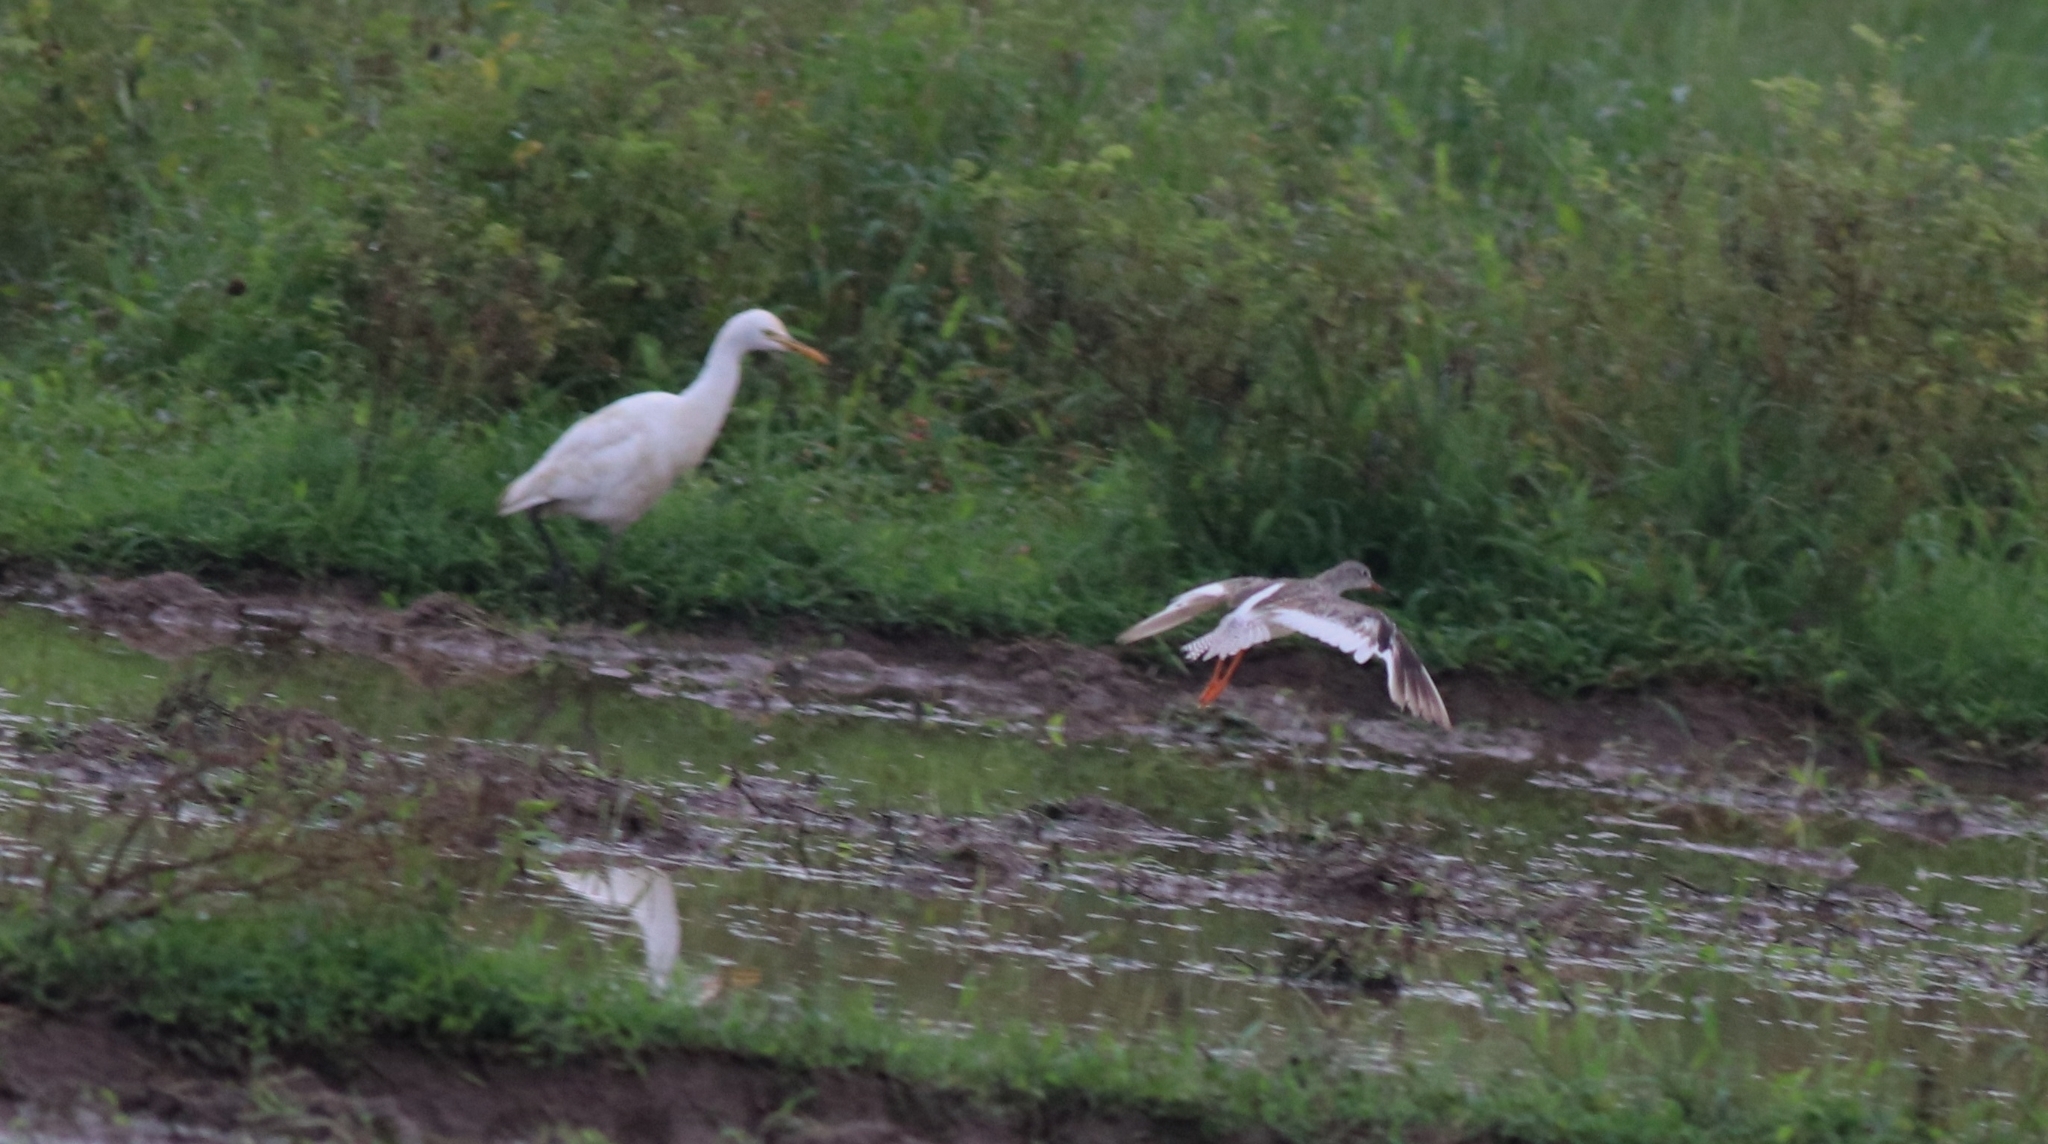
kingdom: Animalia
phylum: Chordata
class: Aves
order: Charadriiformes
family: Scolopacidae
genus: Tringa
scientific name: Tringa totanus
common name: Common redshank
